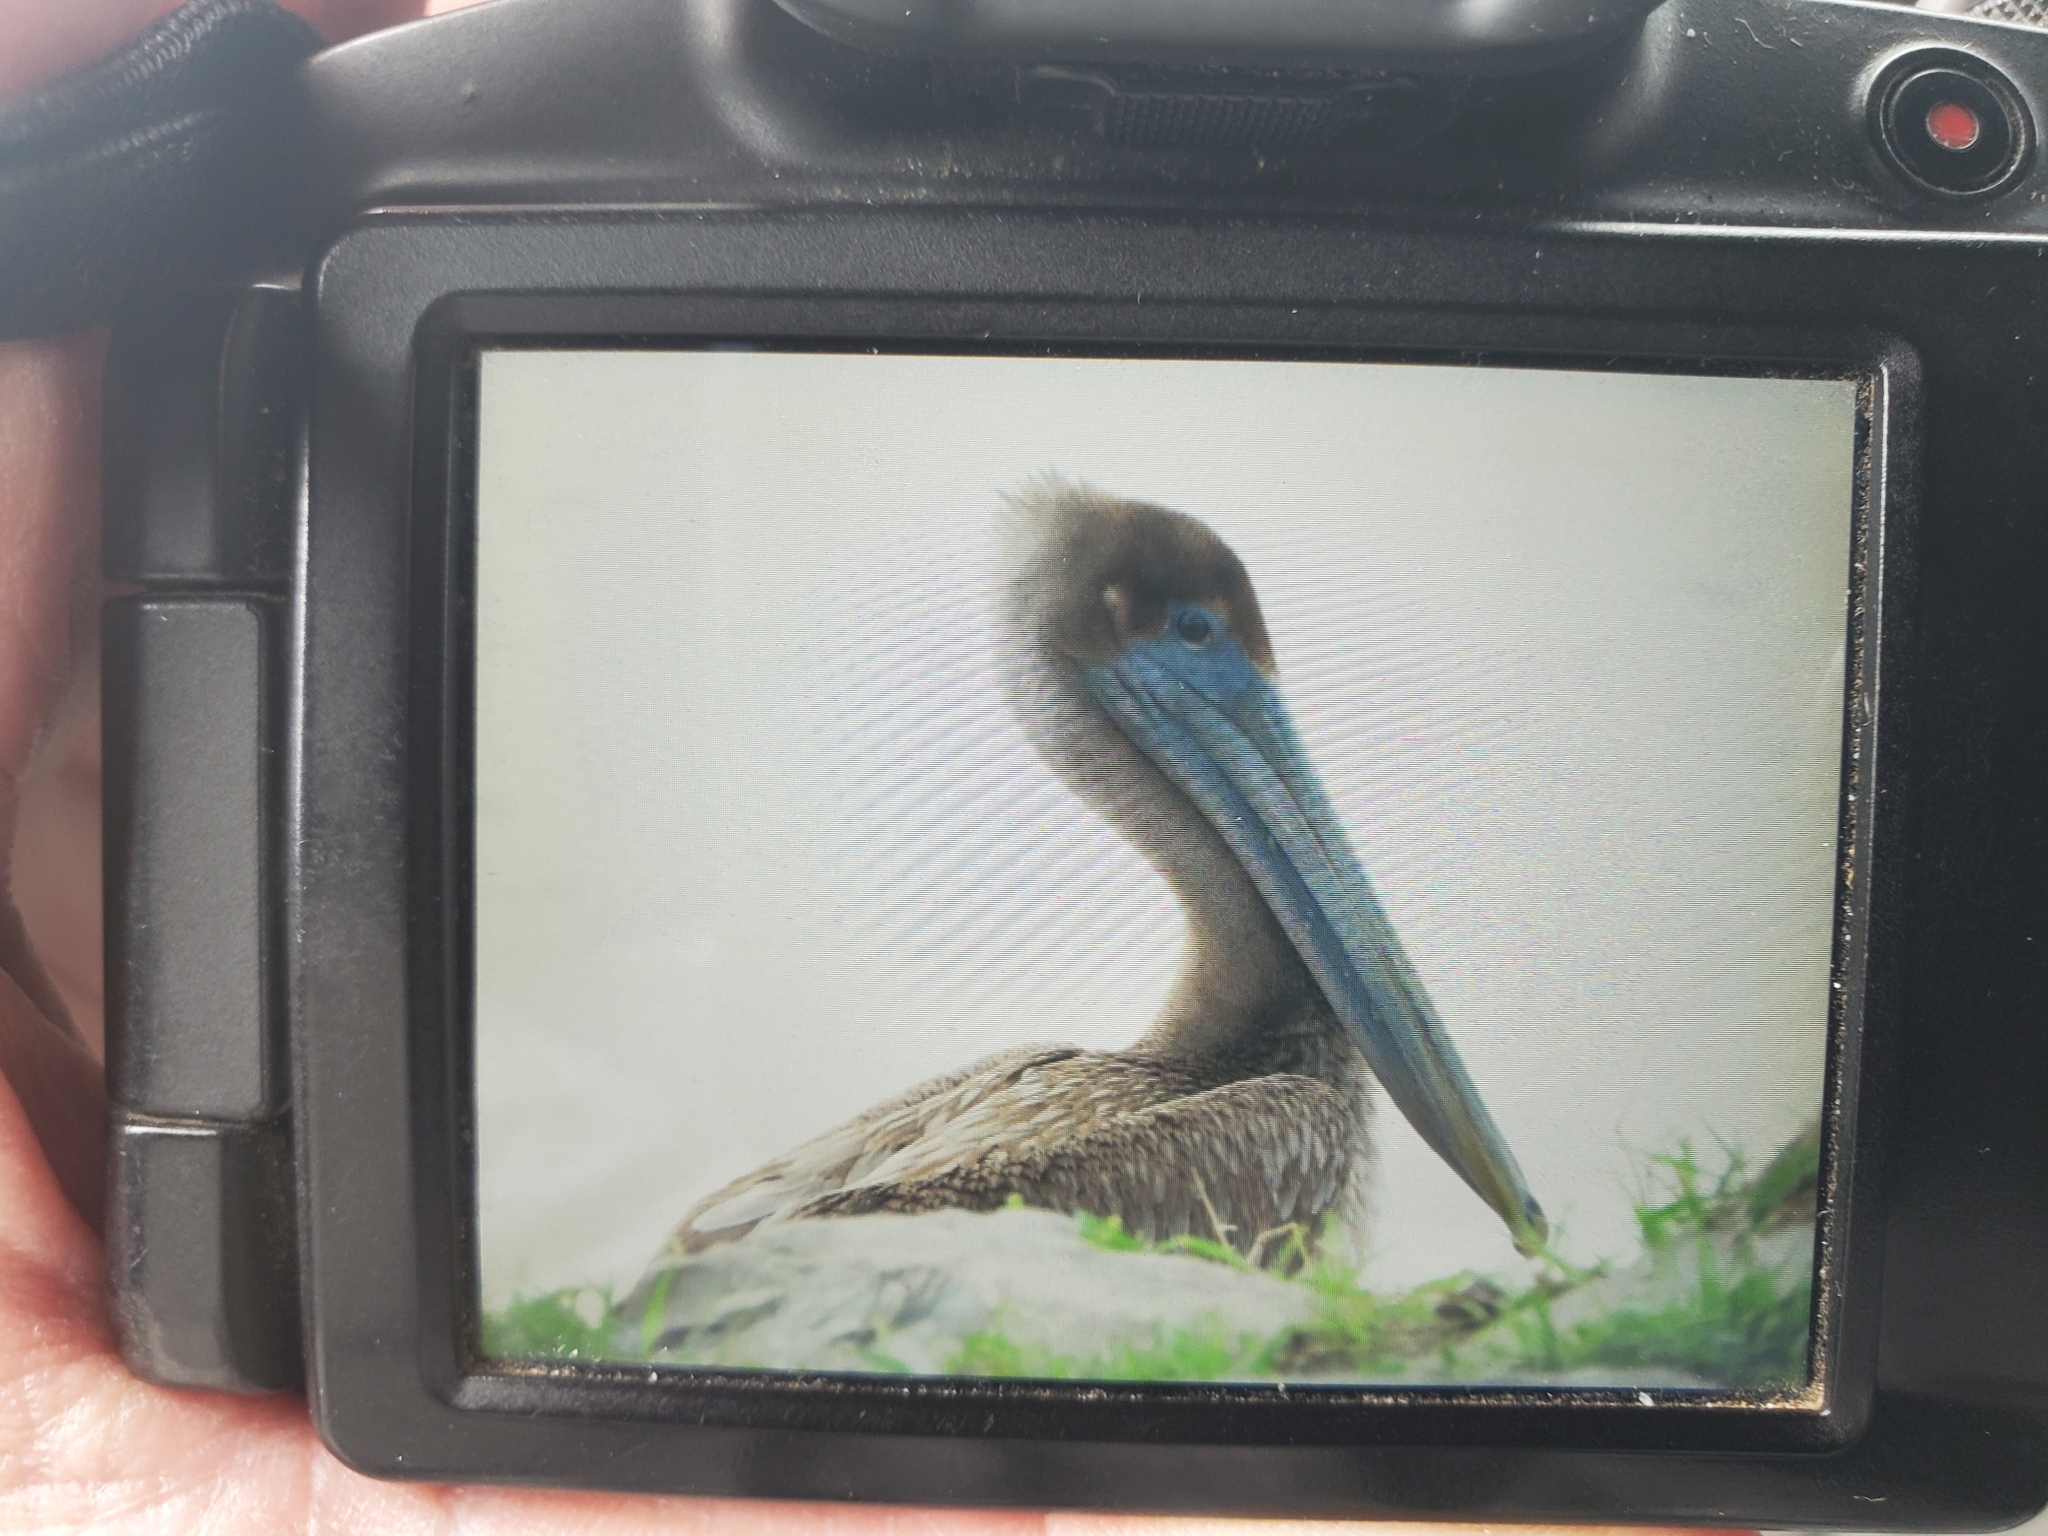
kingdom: Animalia
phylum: Chordata
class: Aves
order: Pelecaniformes
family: Pelecanidae
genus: Pelecanus
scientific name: Pelecanus occidentalis
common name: Brown pelican
